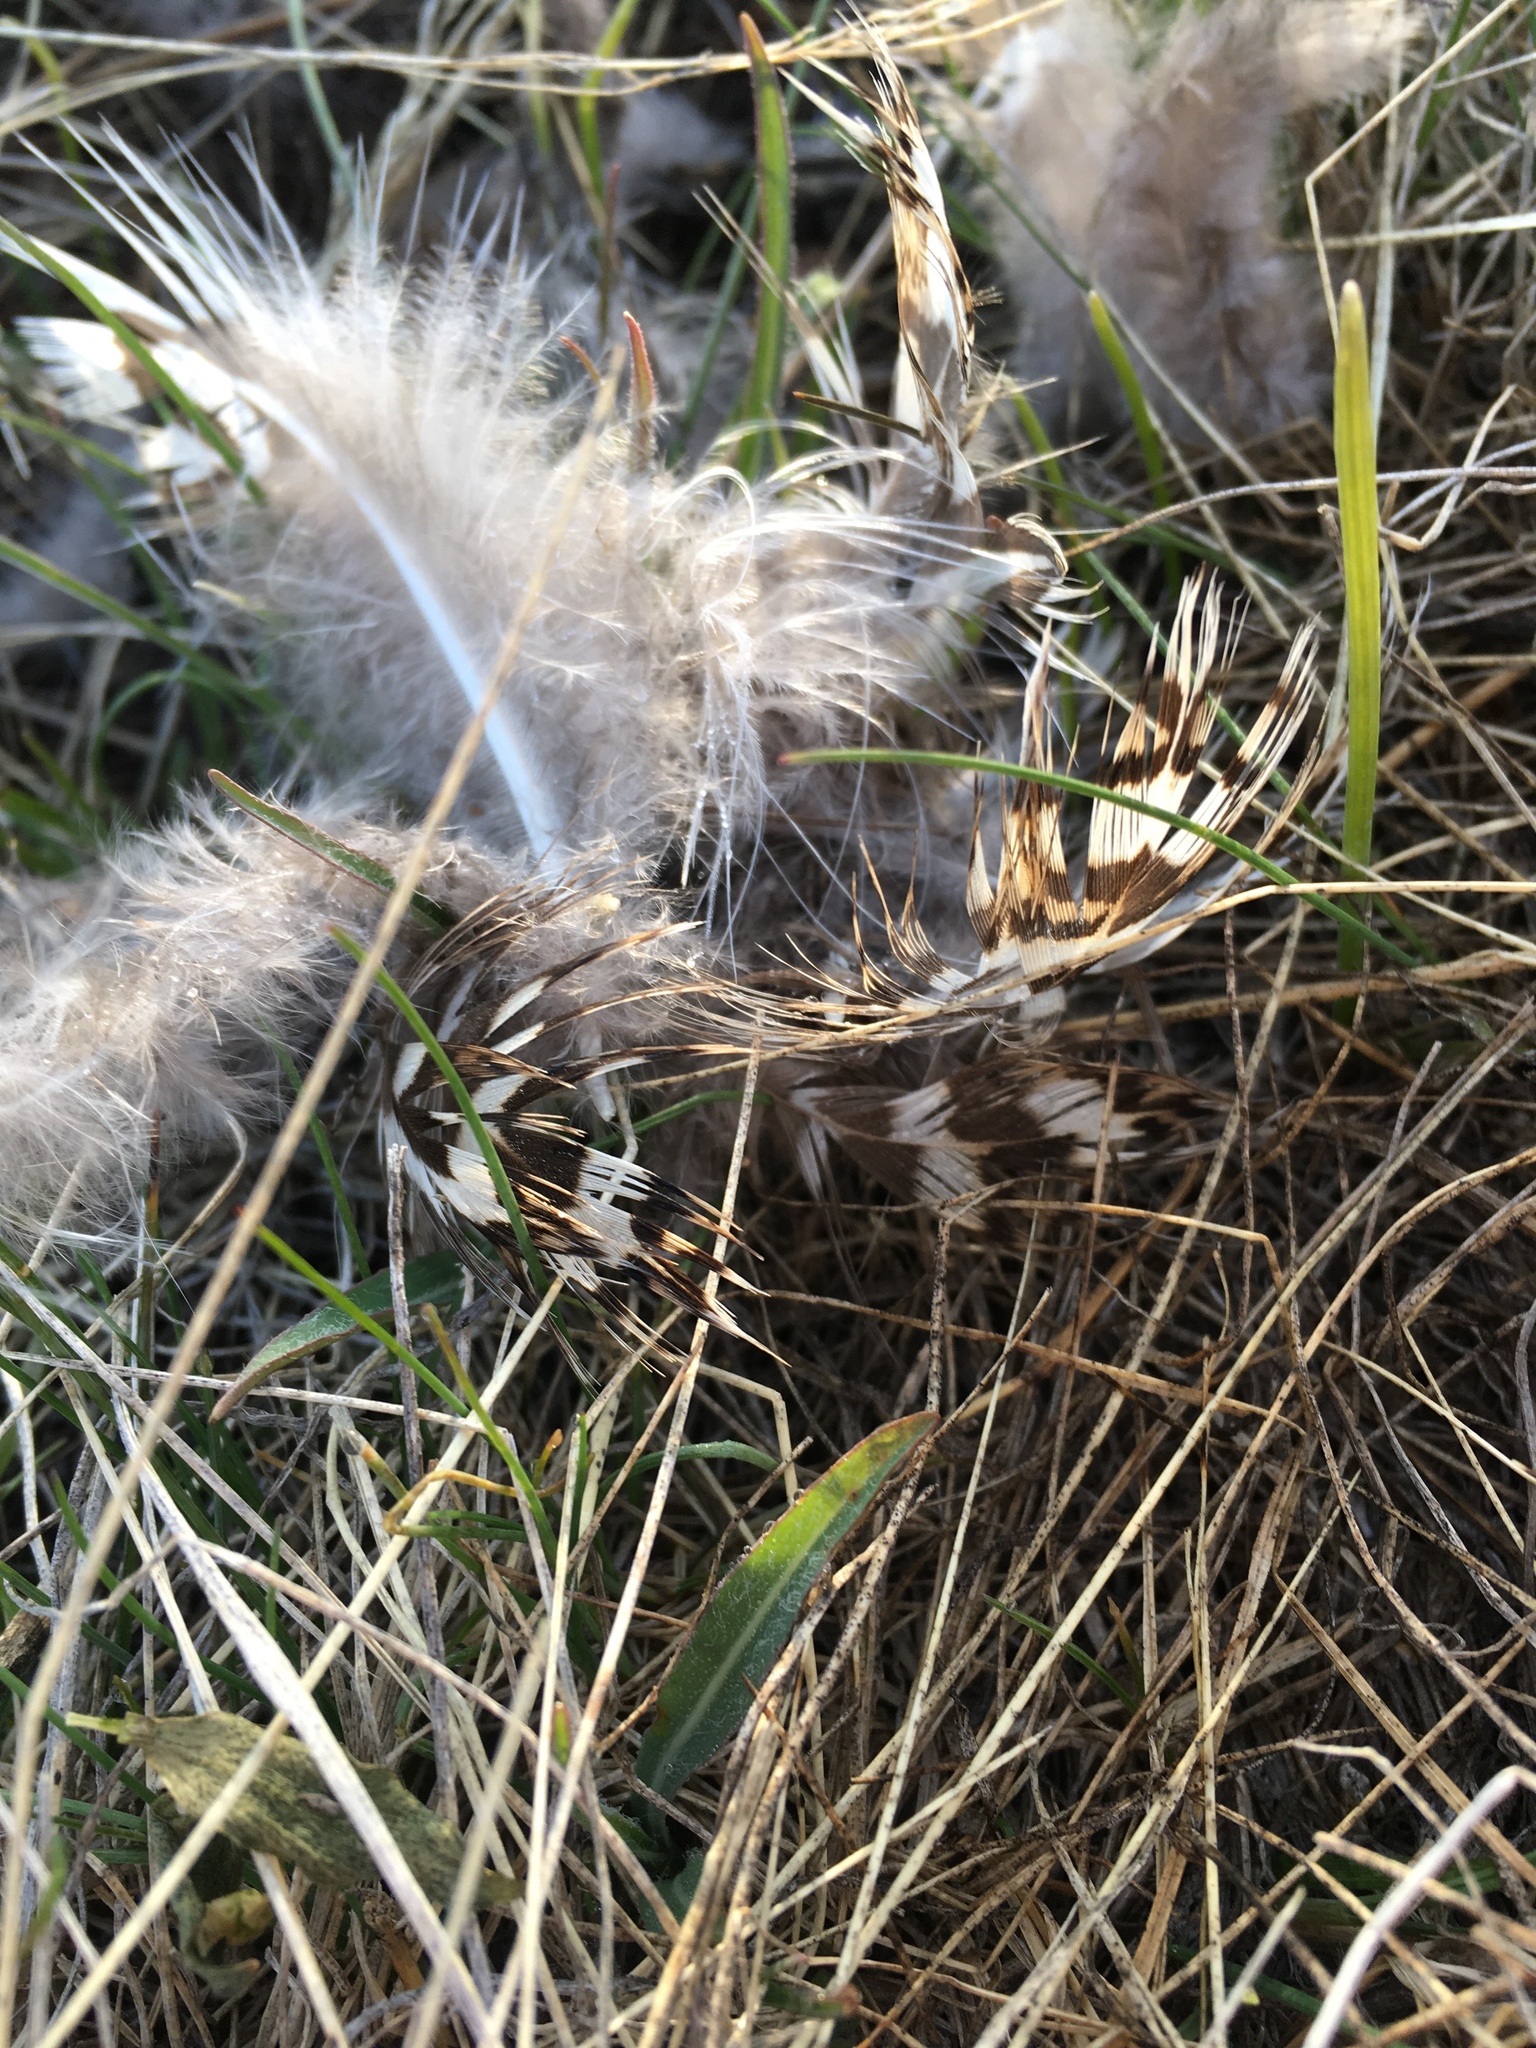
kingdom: Animalia
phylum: Chordata
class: Aves
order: Galliformes
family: Phasianidae
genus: Tympanuchus
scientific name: Tympanuchus phasianellus
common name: Sharp-tailed grouse
